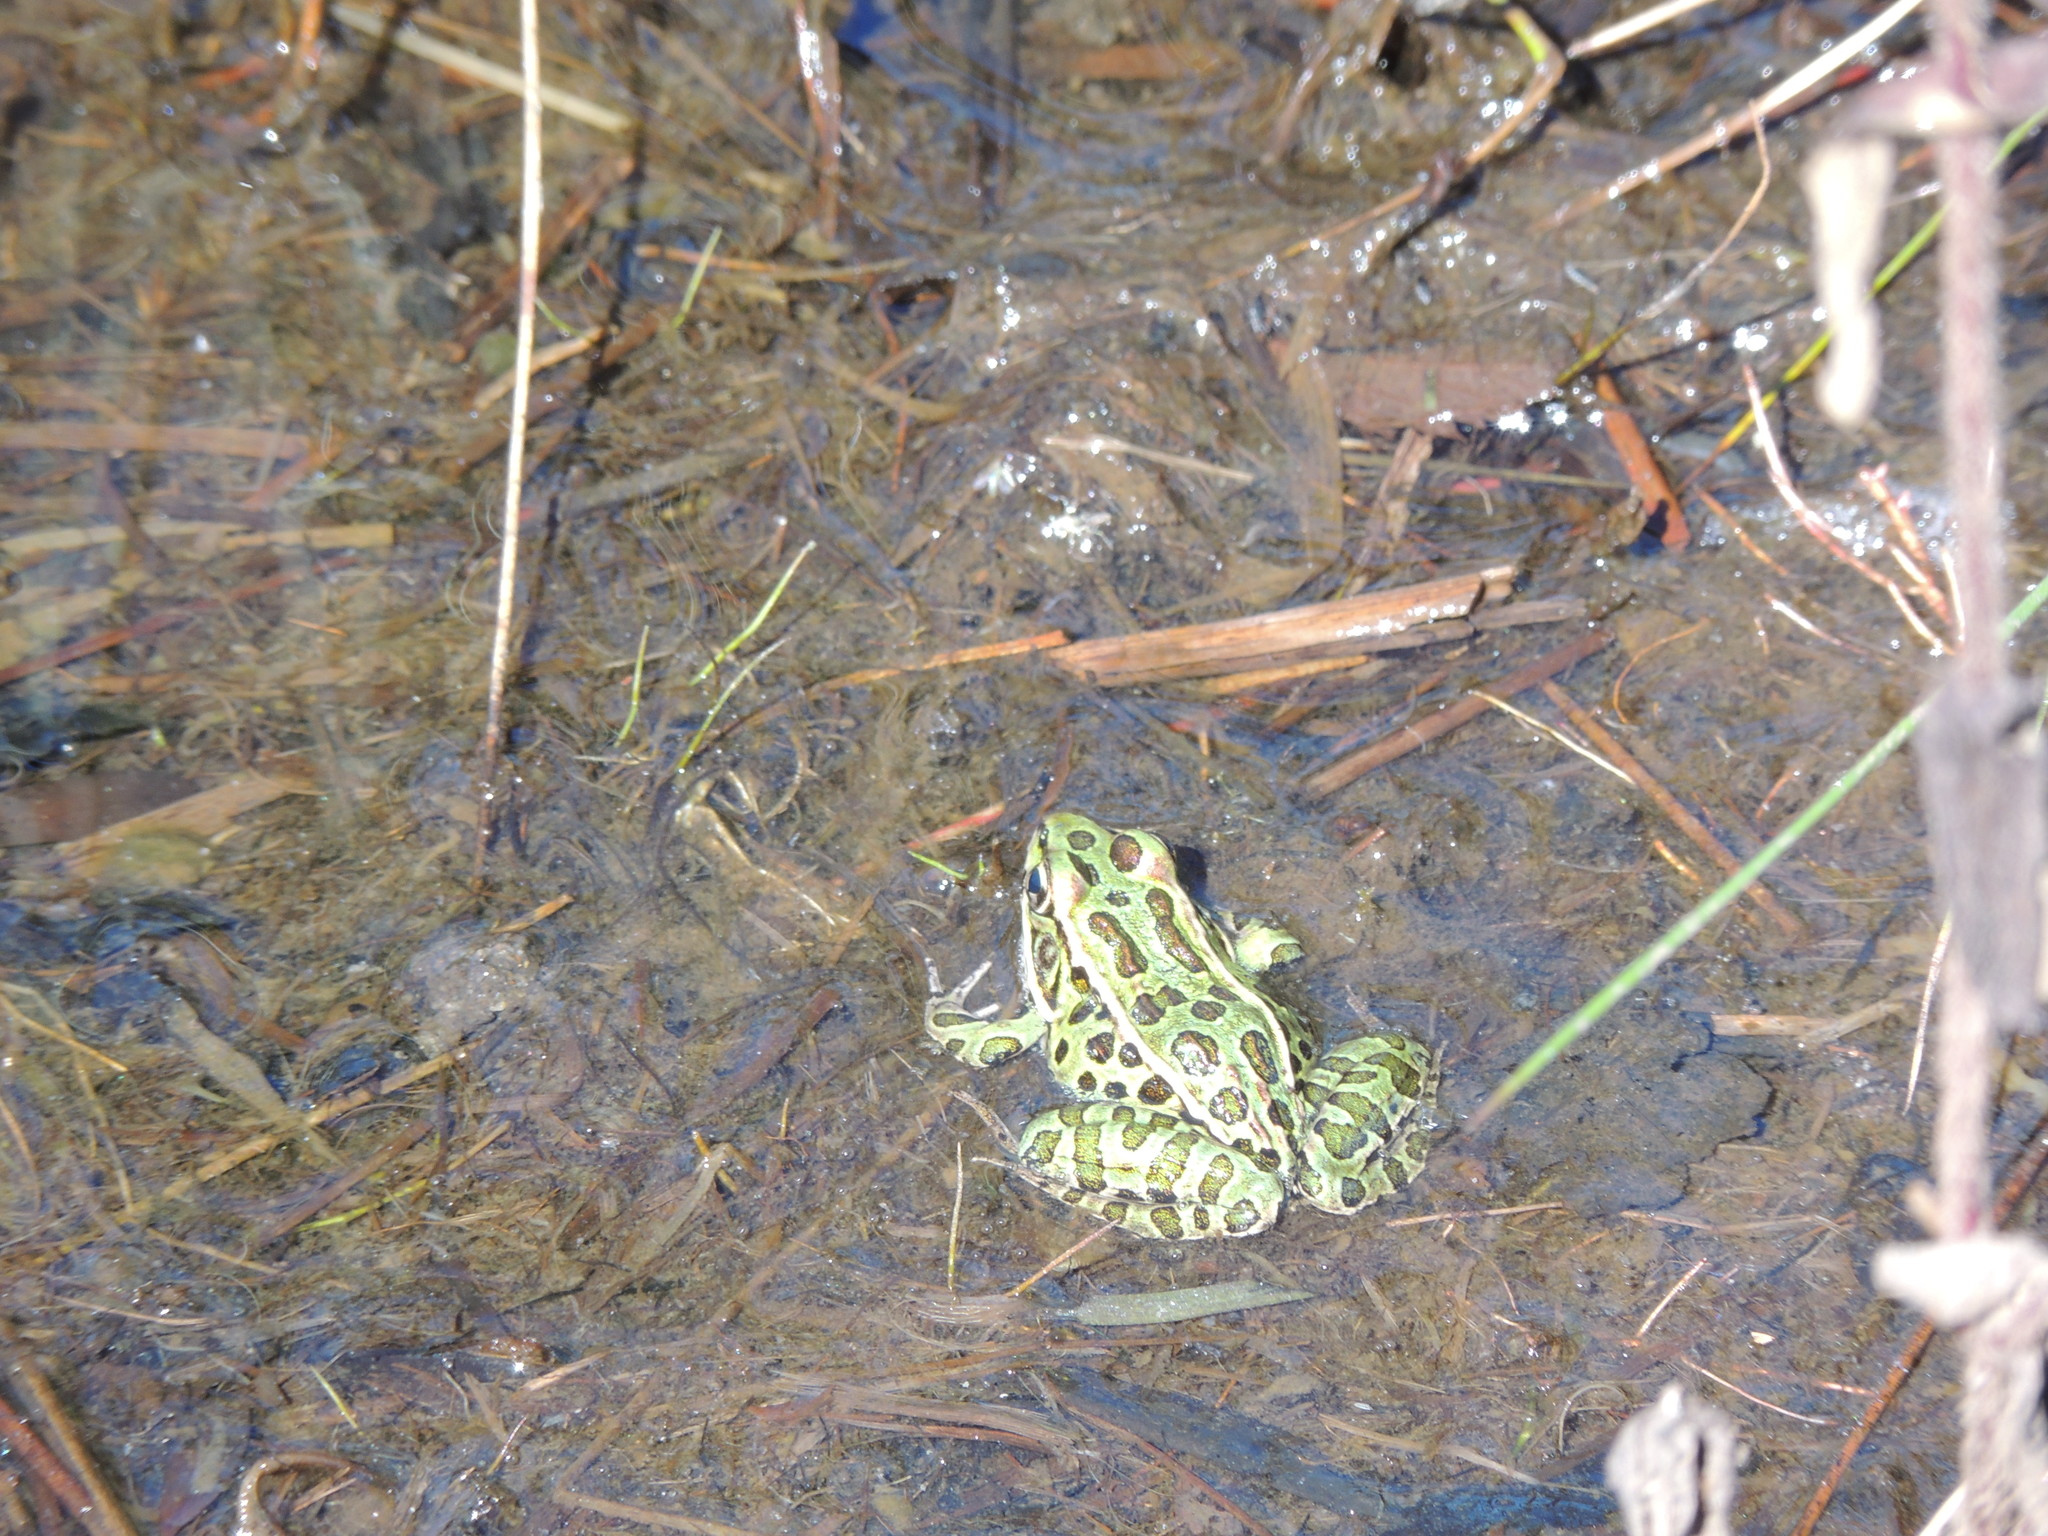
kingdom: Animalia
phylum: Chordata
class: Amphibia
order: Anura
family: Ranidae
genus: Lithobates
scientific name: Lithobates pipiens
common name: Northern leopard frog
